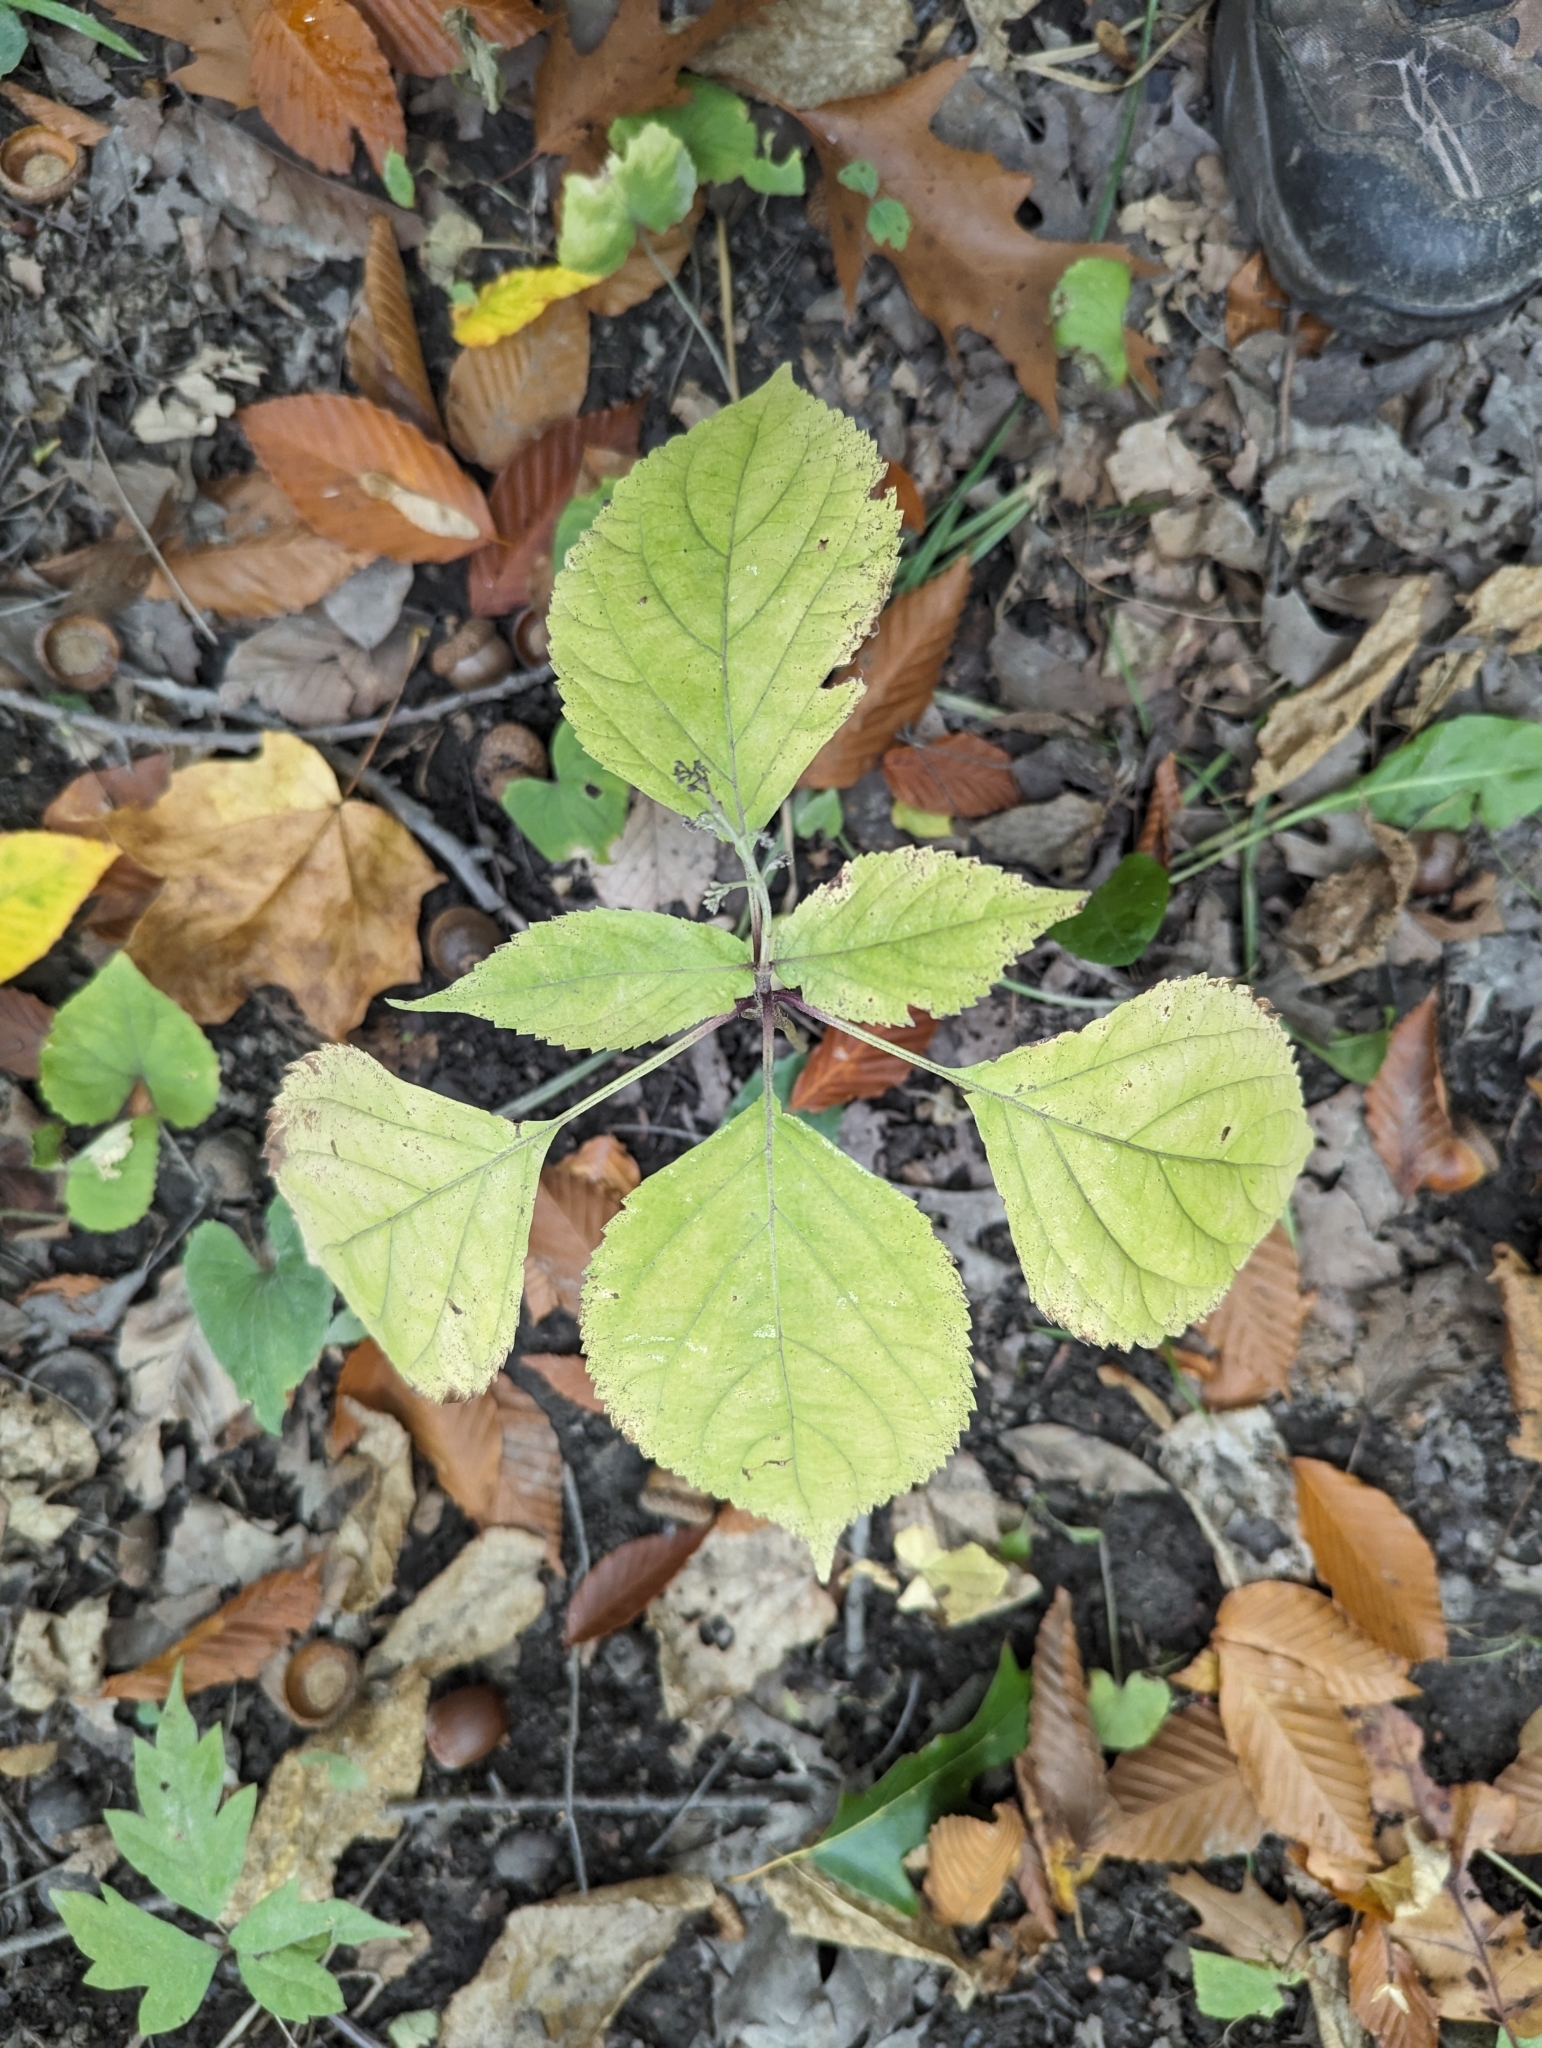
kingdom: Plantae
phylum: Tracheophyta
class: Magnoliopsida
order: Rosales
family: Urticaceae
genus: Laportea
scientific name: Laportea canadensis
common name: Canada nettle
